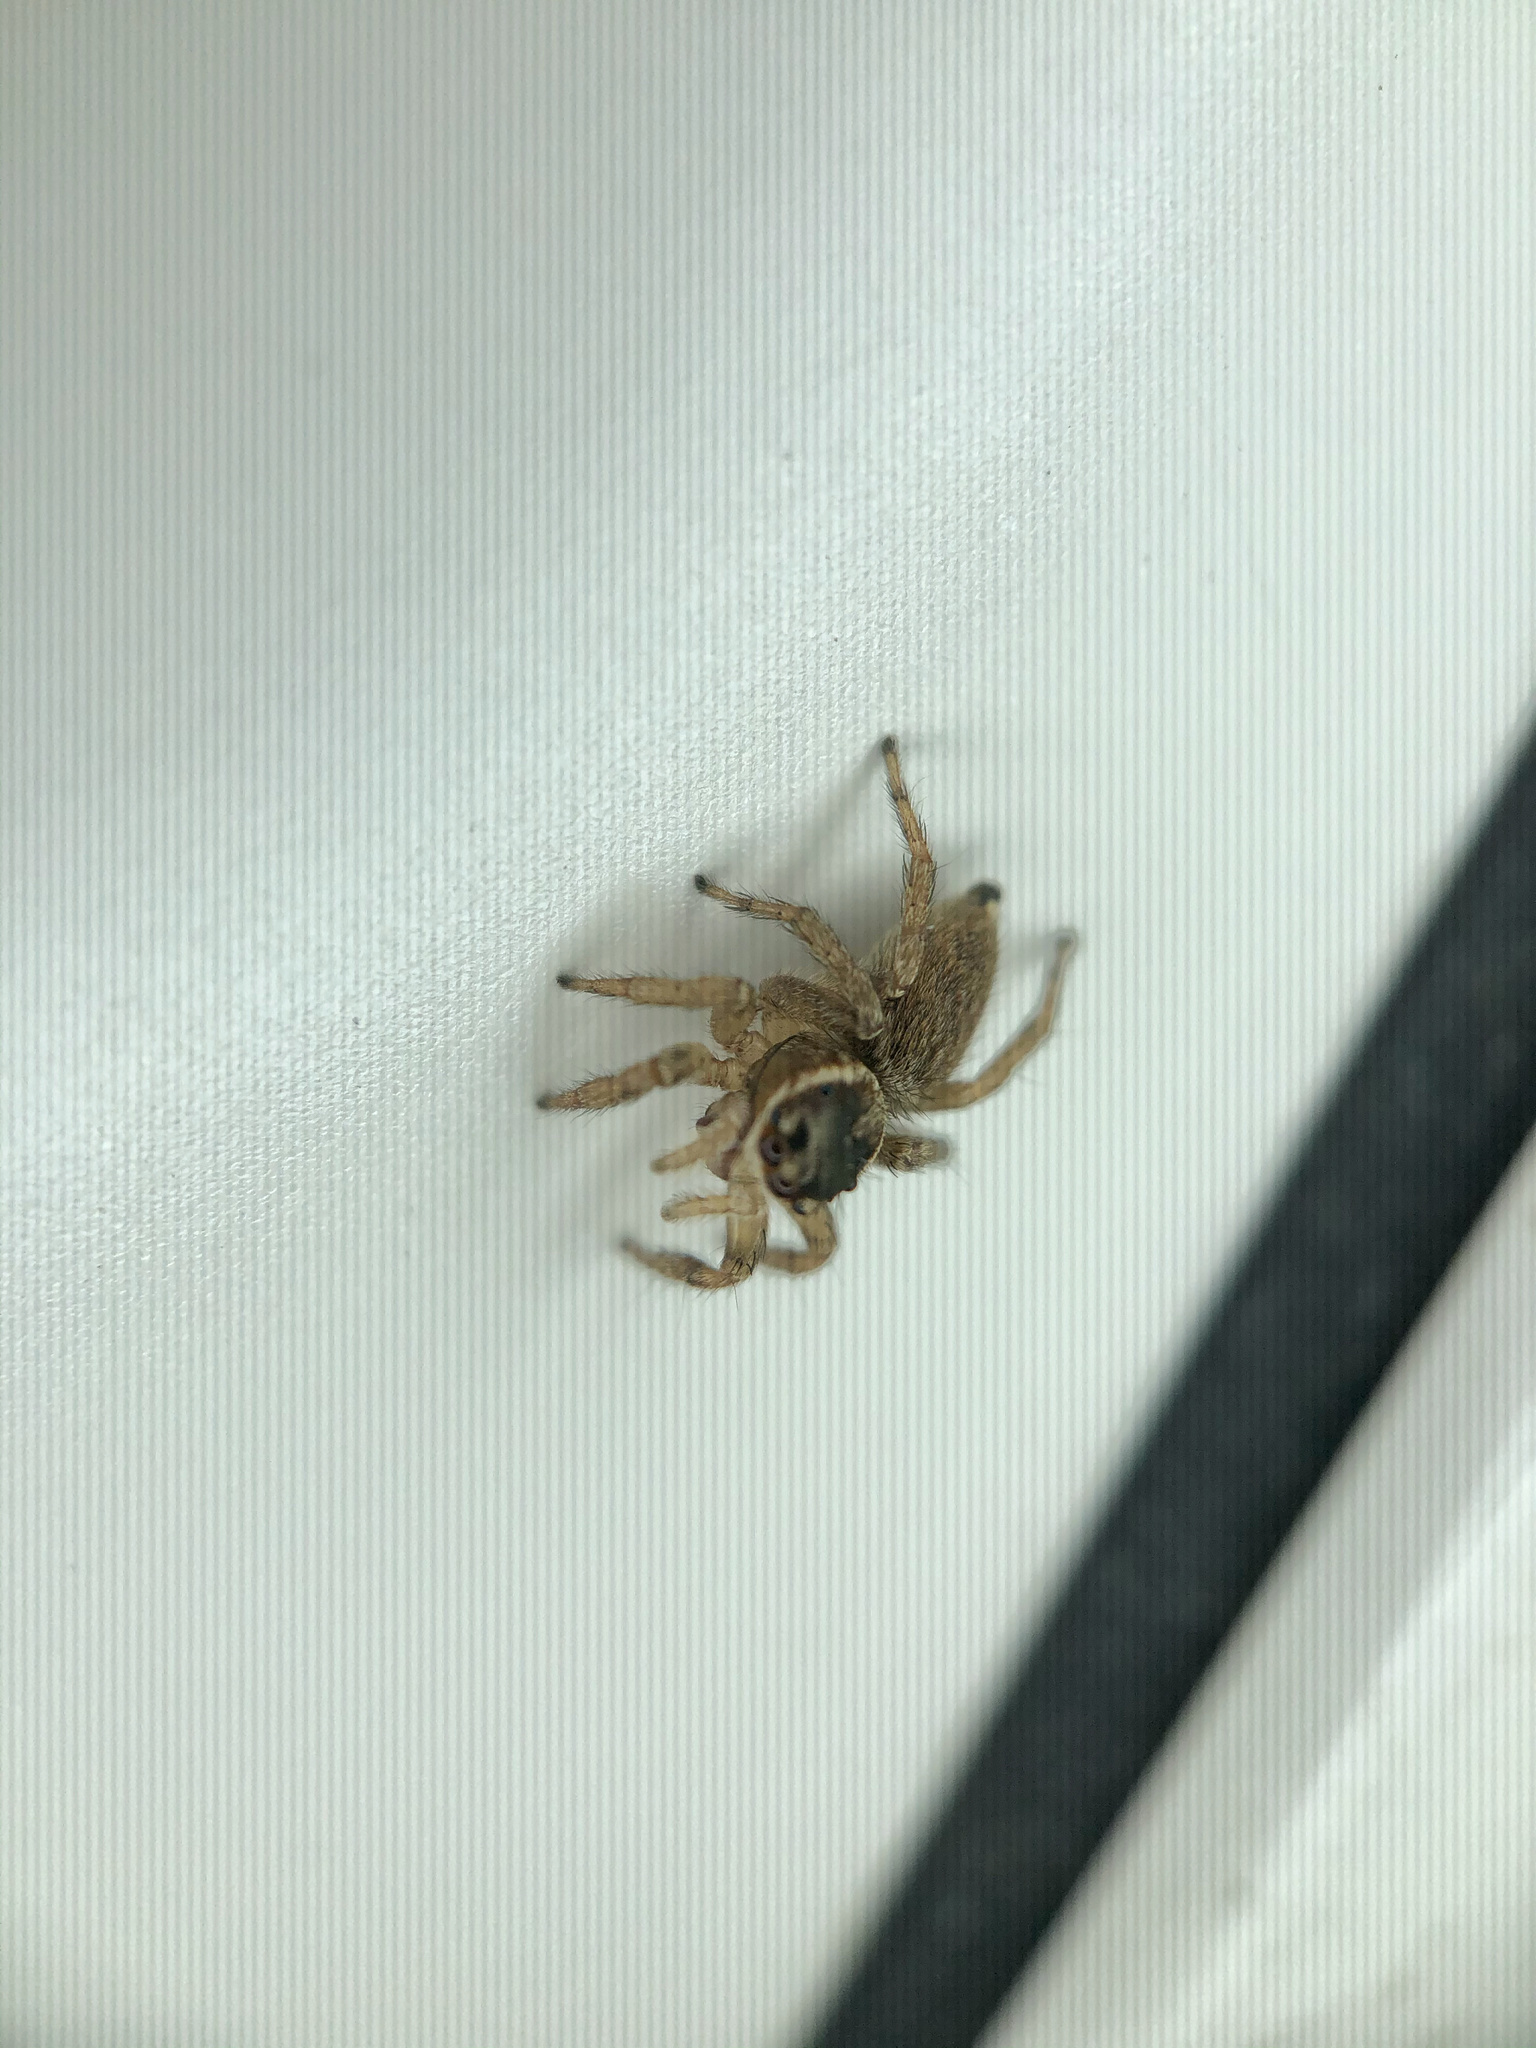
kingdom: Animalia
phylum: Arthropoda
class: Arachnida
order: Araneae
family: Salticidae
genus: Maratus
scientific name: Maratus griseus
